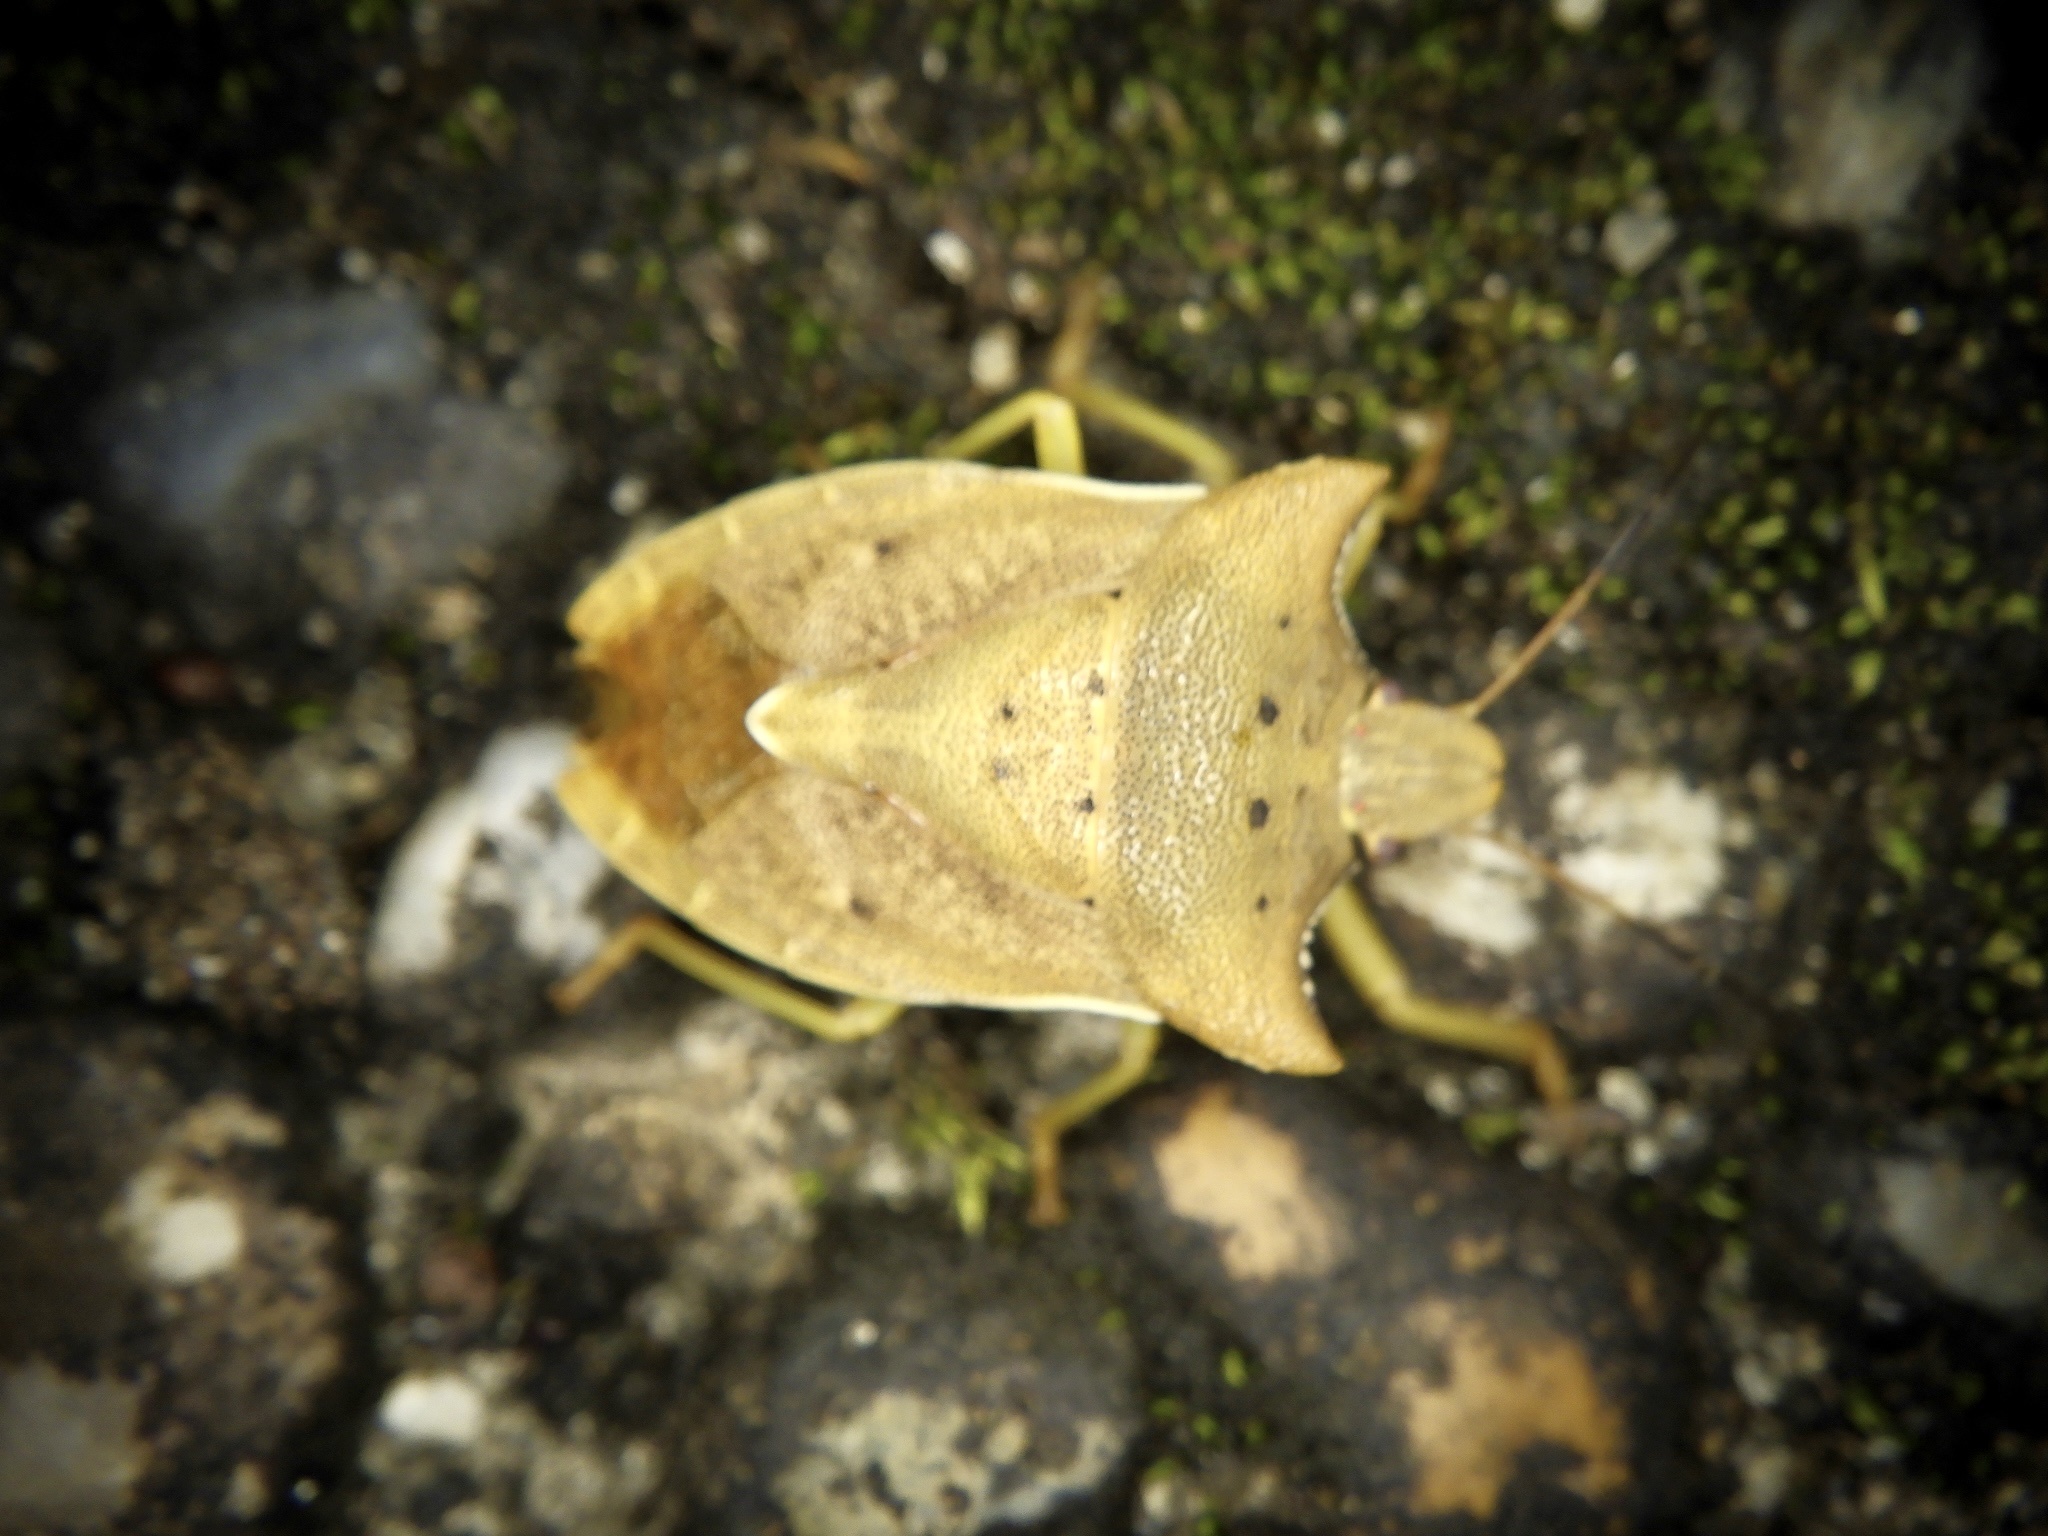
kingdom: Animalia
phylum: Arthropoda
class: Insecta
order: Hemiptera
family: Pentatomidae
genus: Lelia
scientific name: Lelia decempunctata
